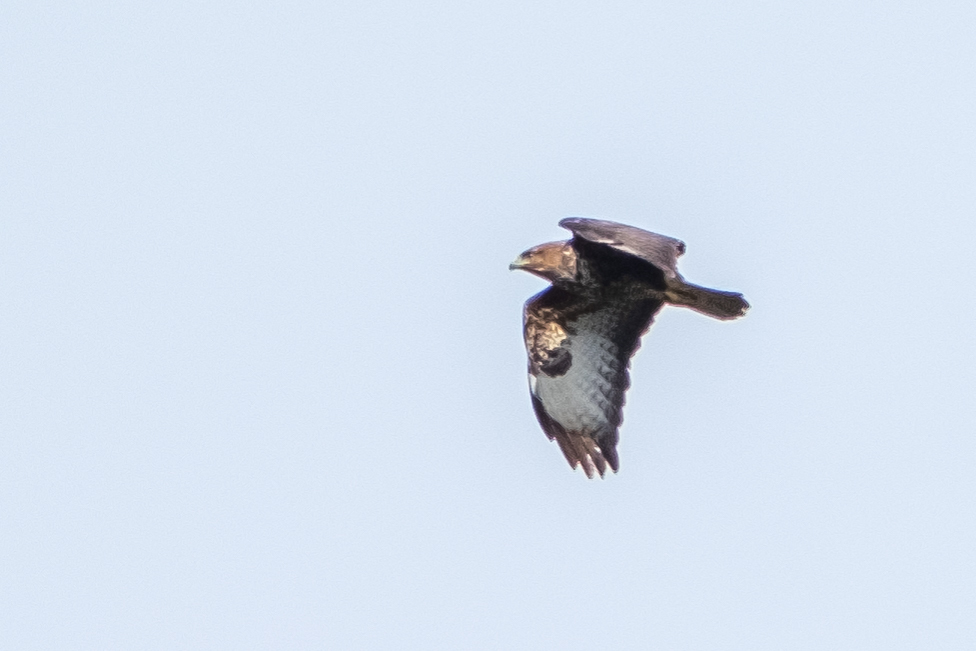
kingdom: Animalia
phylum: Chordata
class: Aves
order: Accipitriformes
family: Accipitridae
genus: Buteo
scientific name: Buteo buteo
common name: Common buzzard
